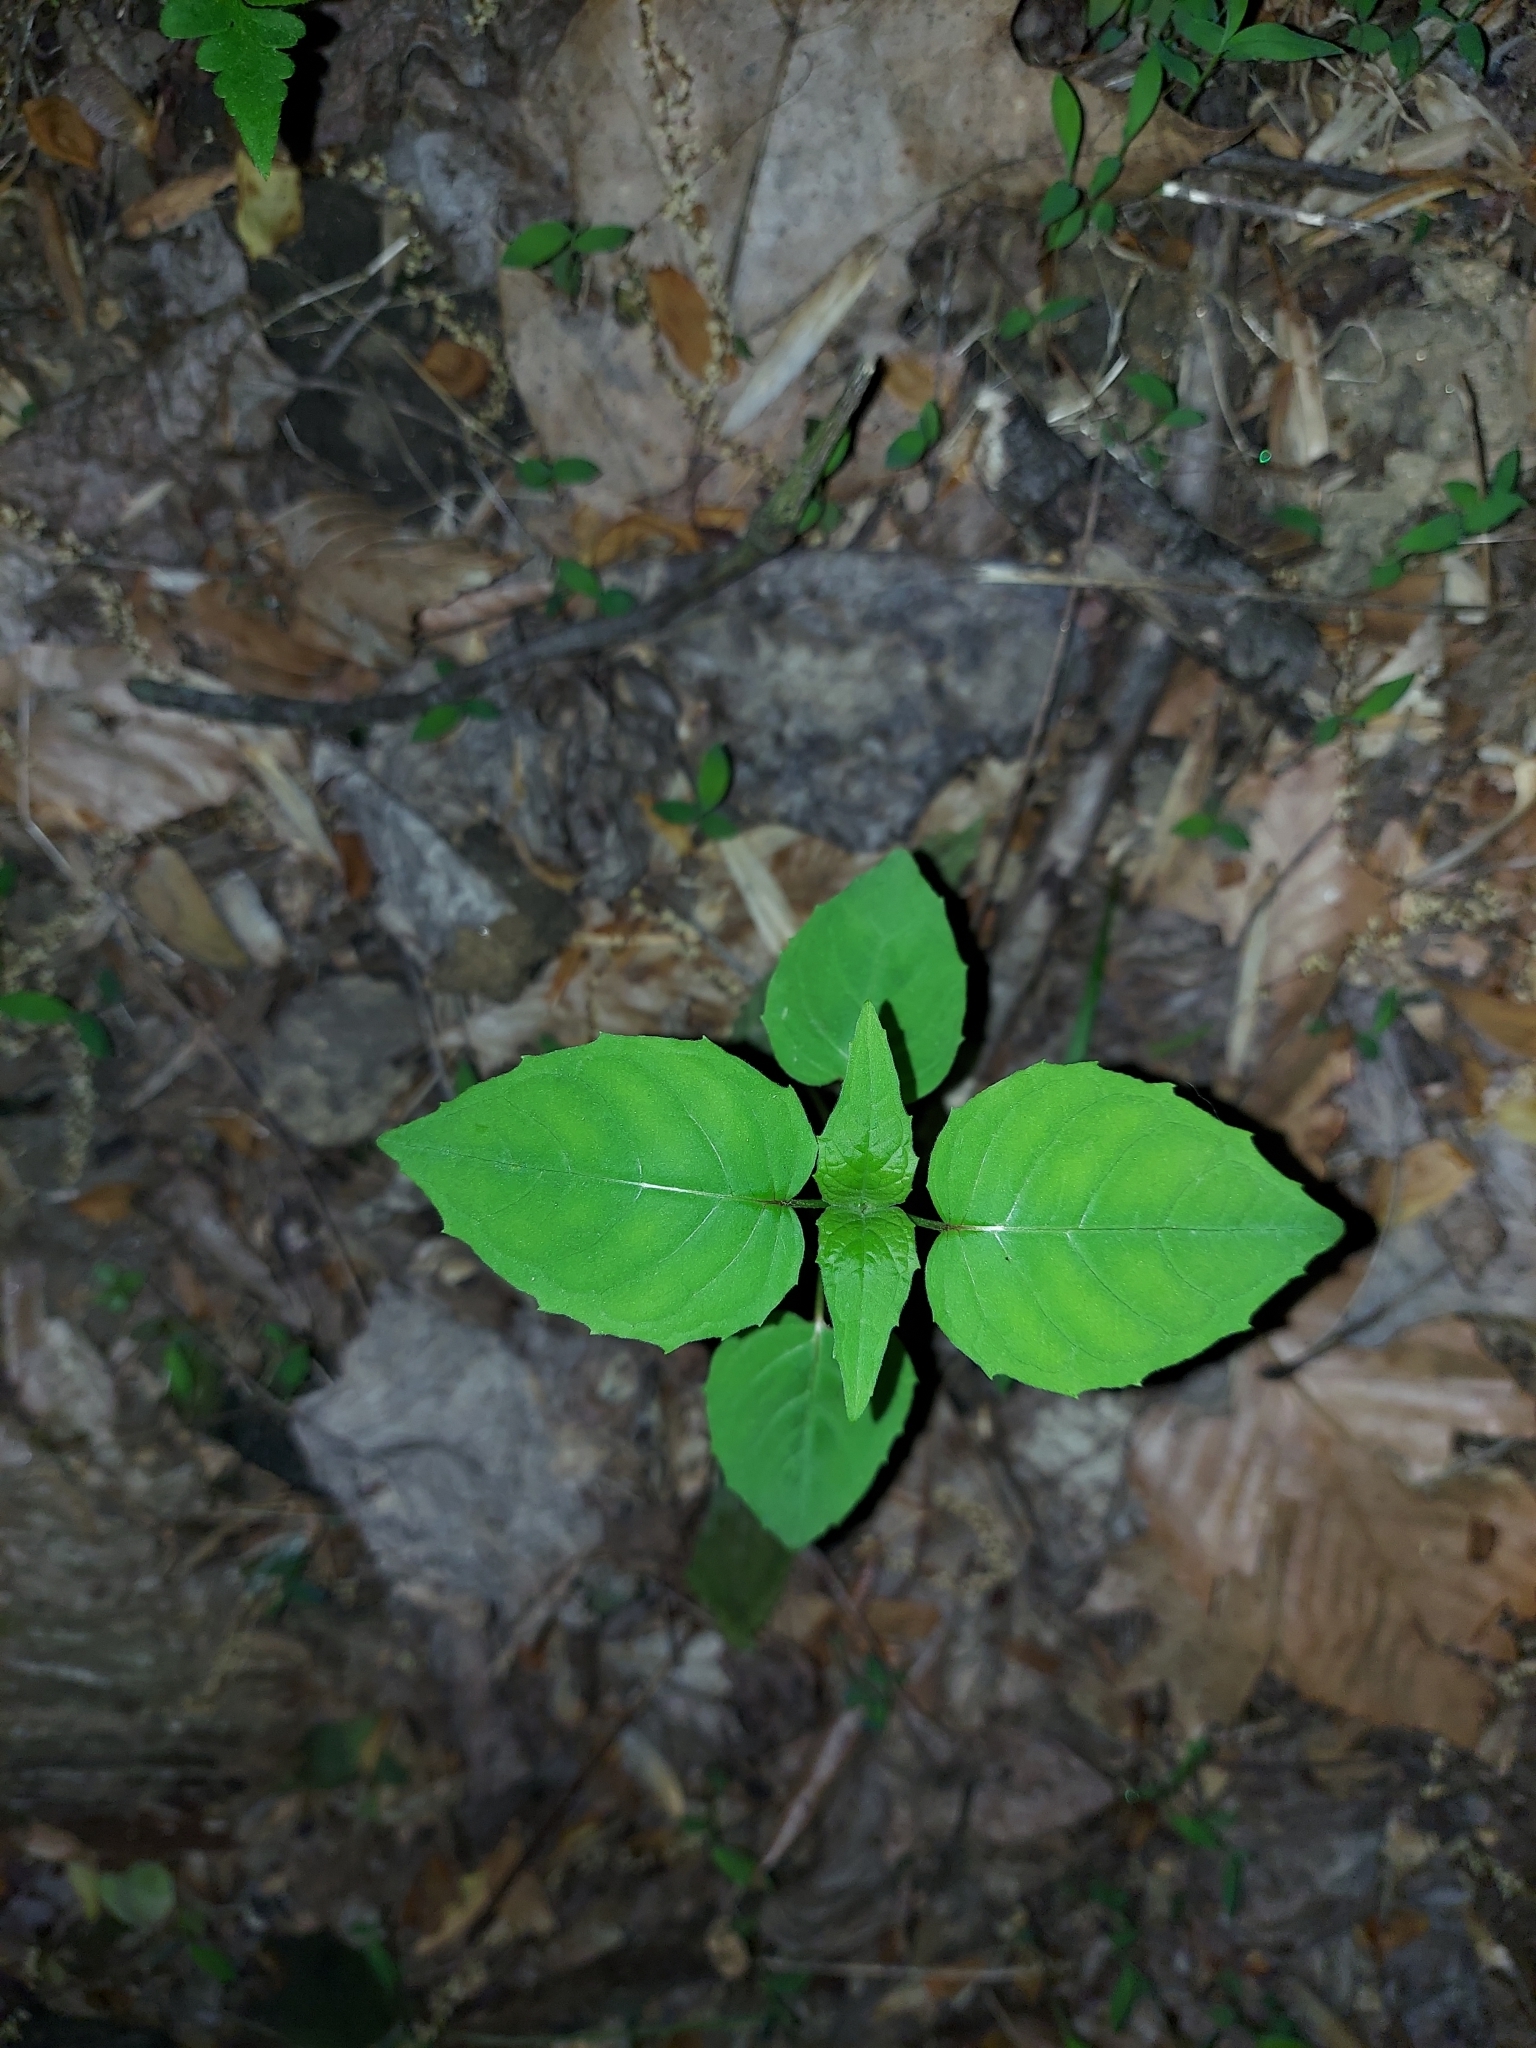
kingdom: Plantae
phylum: Tracheophyta
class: Magnoliopsida
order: Myrtales
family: Onagraceae
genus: Circaea
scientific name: Circaea canadensis
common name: Broad-leaved enchanter's nightshade
